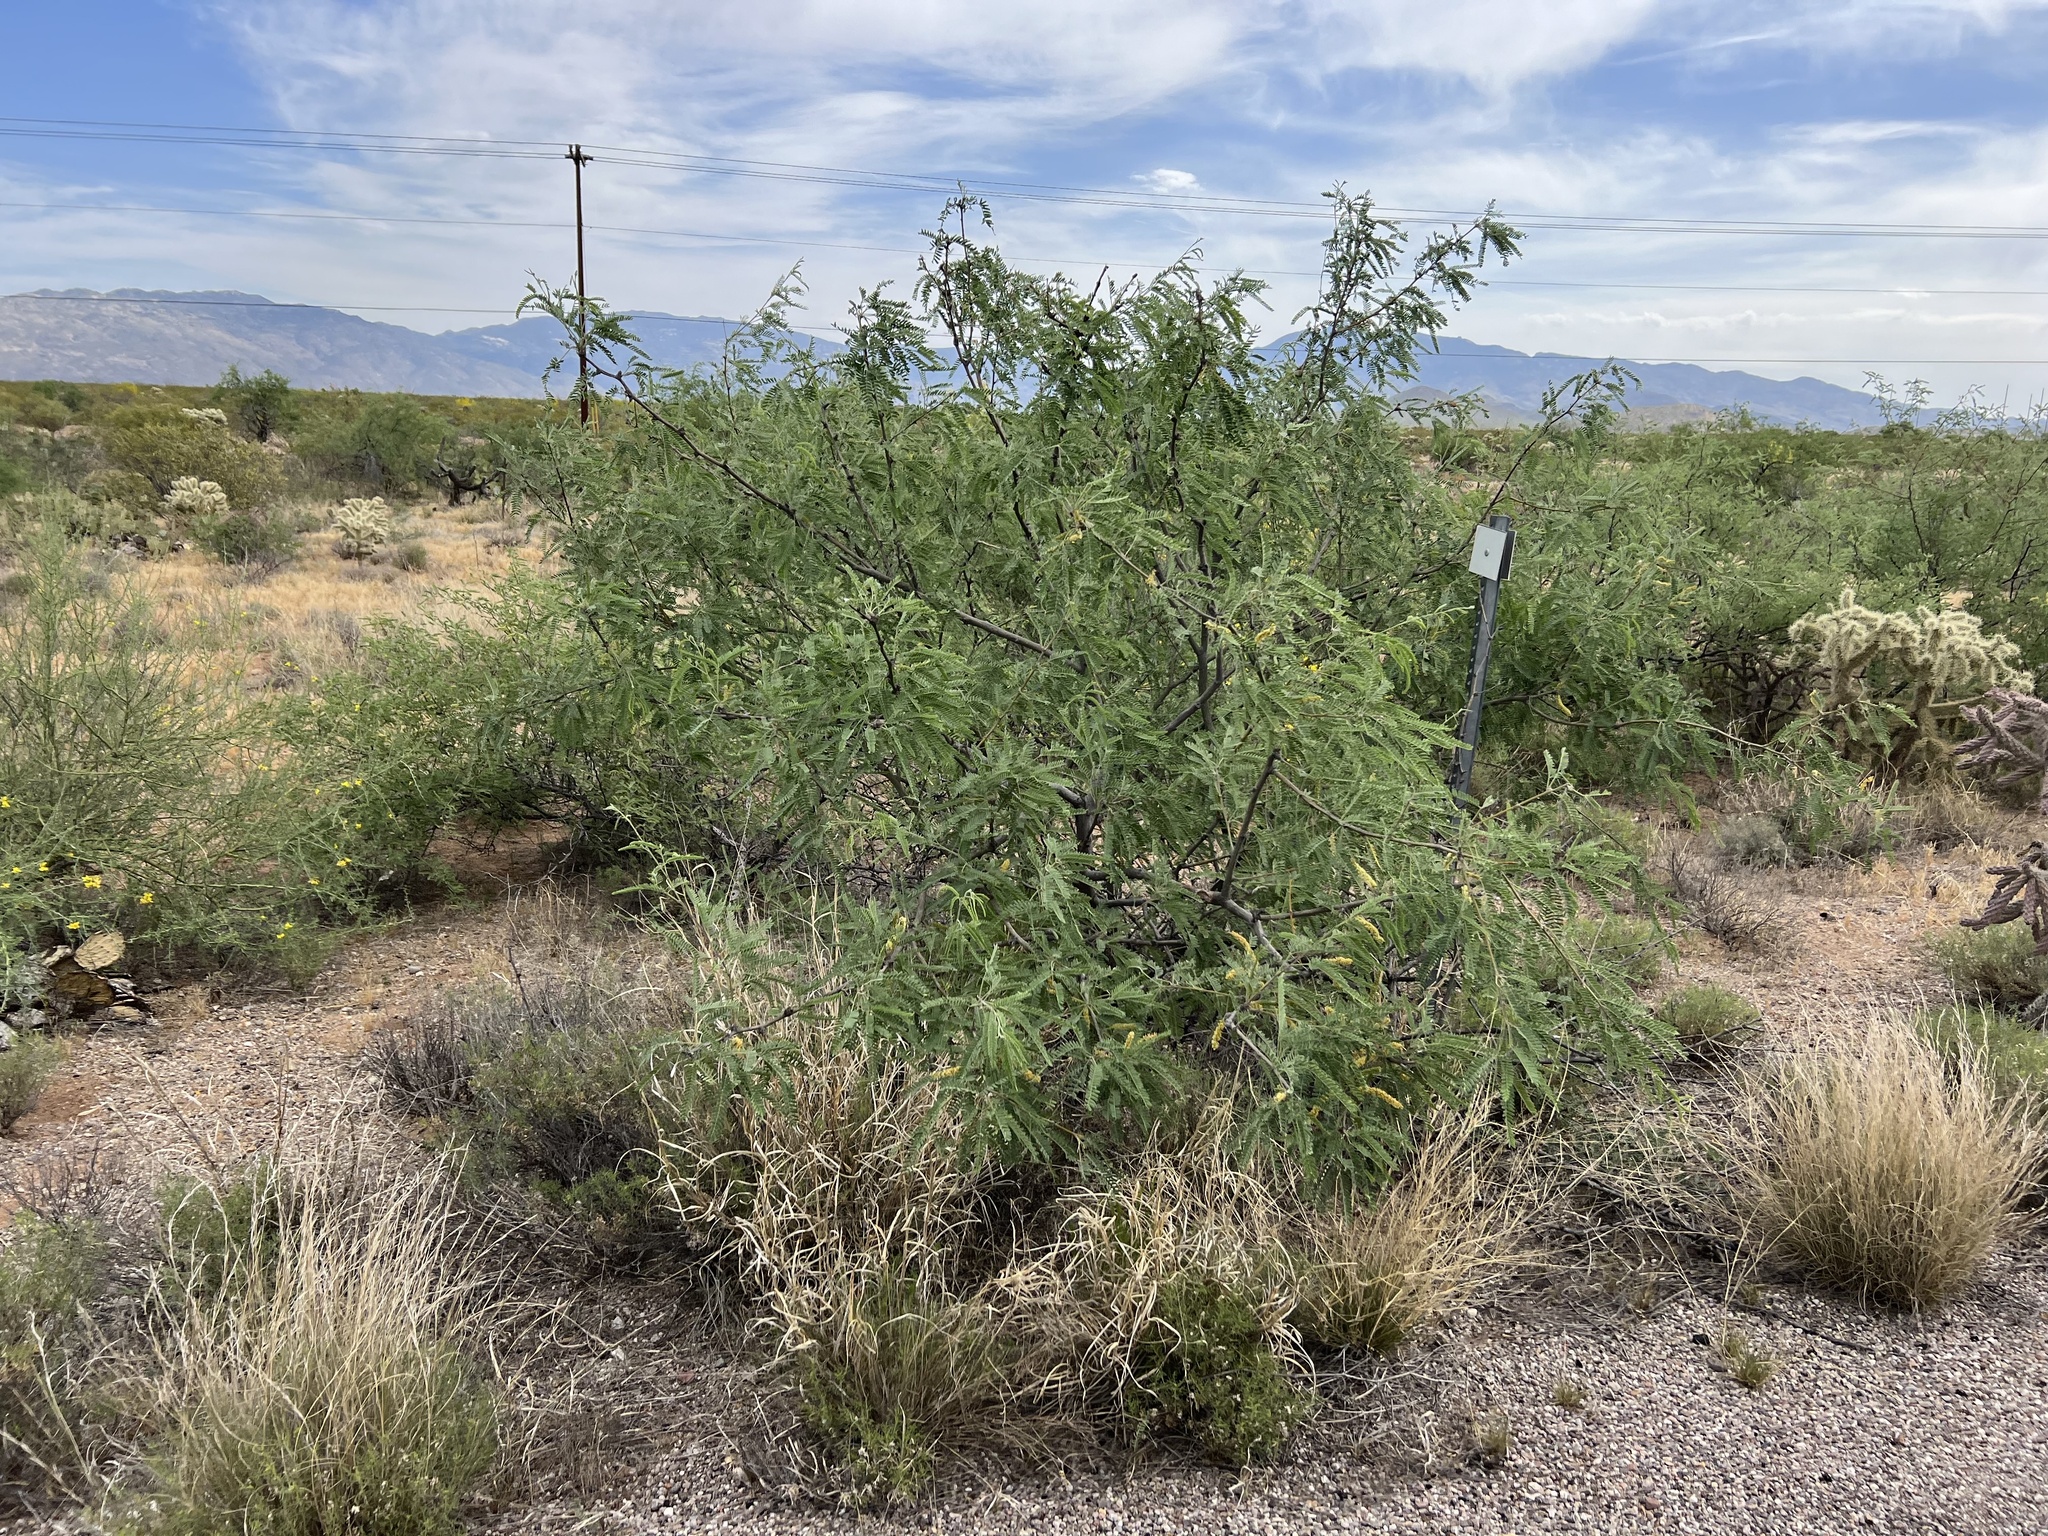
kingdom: Plantae
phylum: Tracheophyta
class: Magnoliopsida
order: Fabales
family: Fabaceae
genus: Prosopis
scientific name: Prosopis velutina
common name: Velvet mesquite
